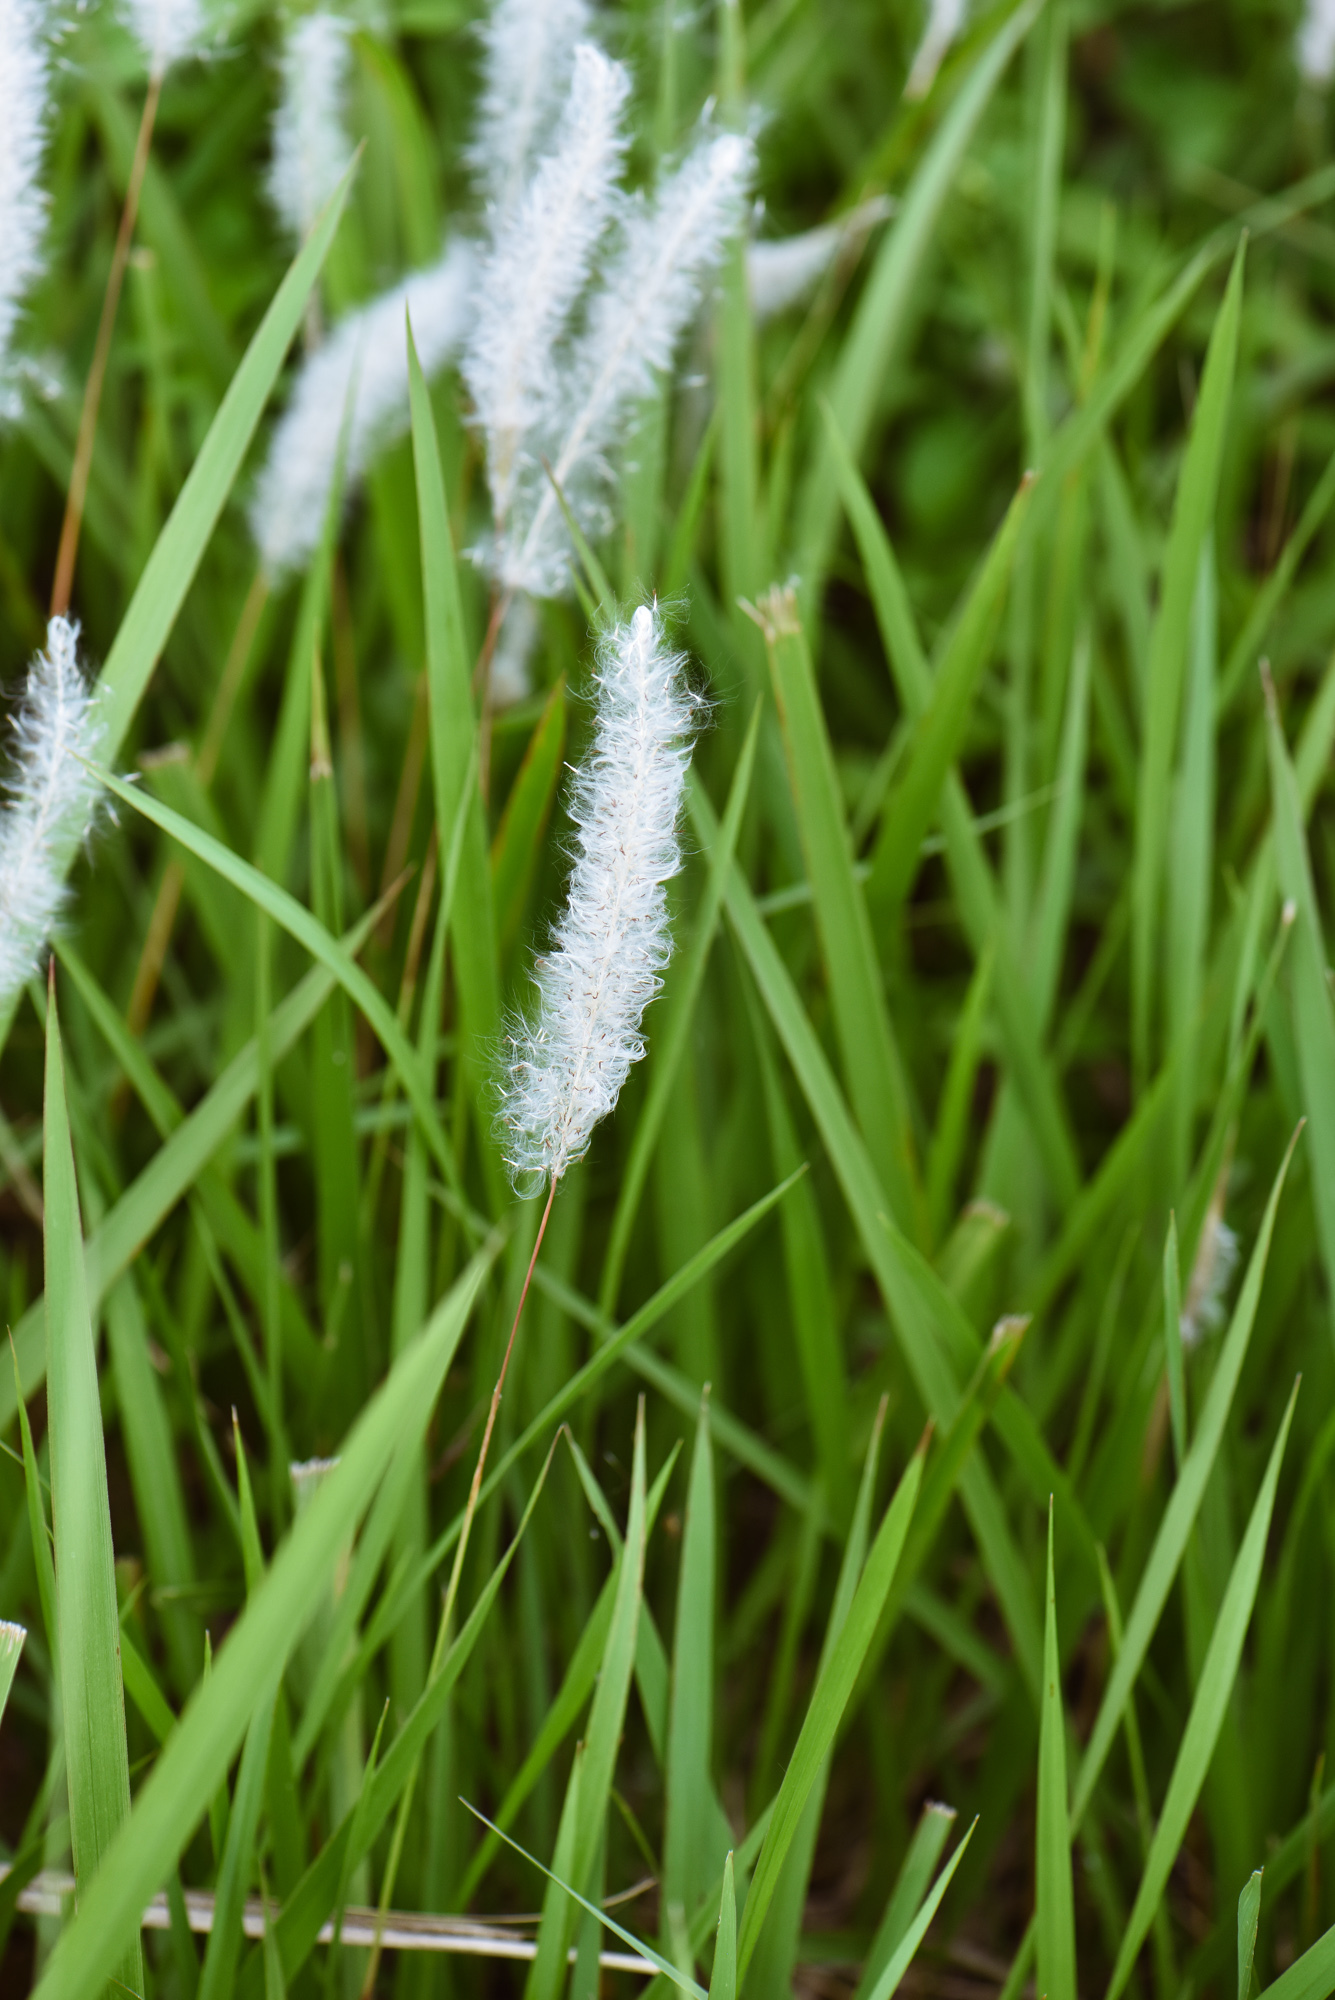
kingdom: Plantae
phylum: Tracheophyta
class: Liliopsida
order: Poales
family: Poaceae
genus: Imperata
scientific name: Imperata cylindrica
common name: Cogongrass
